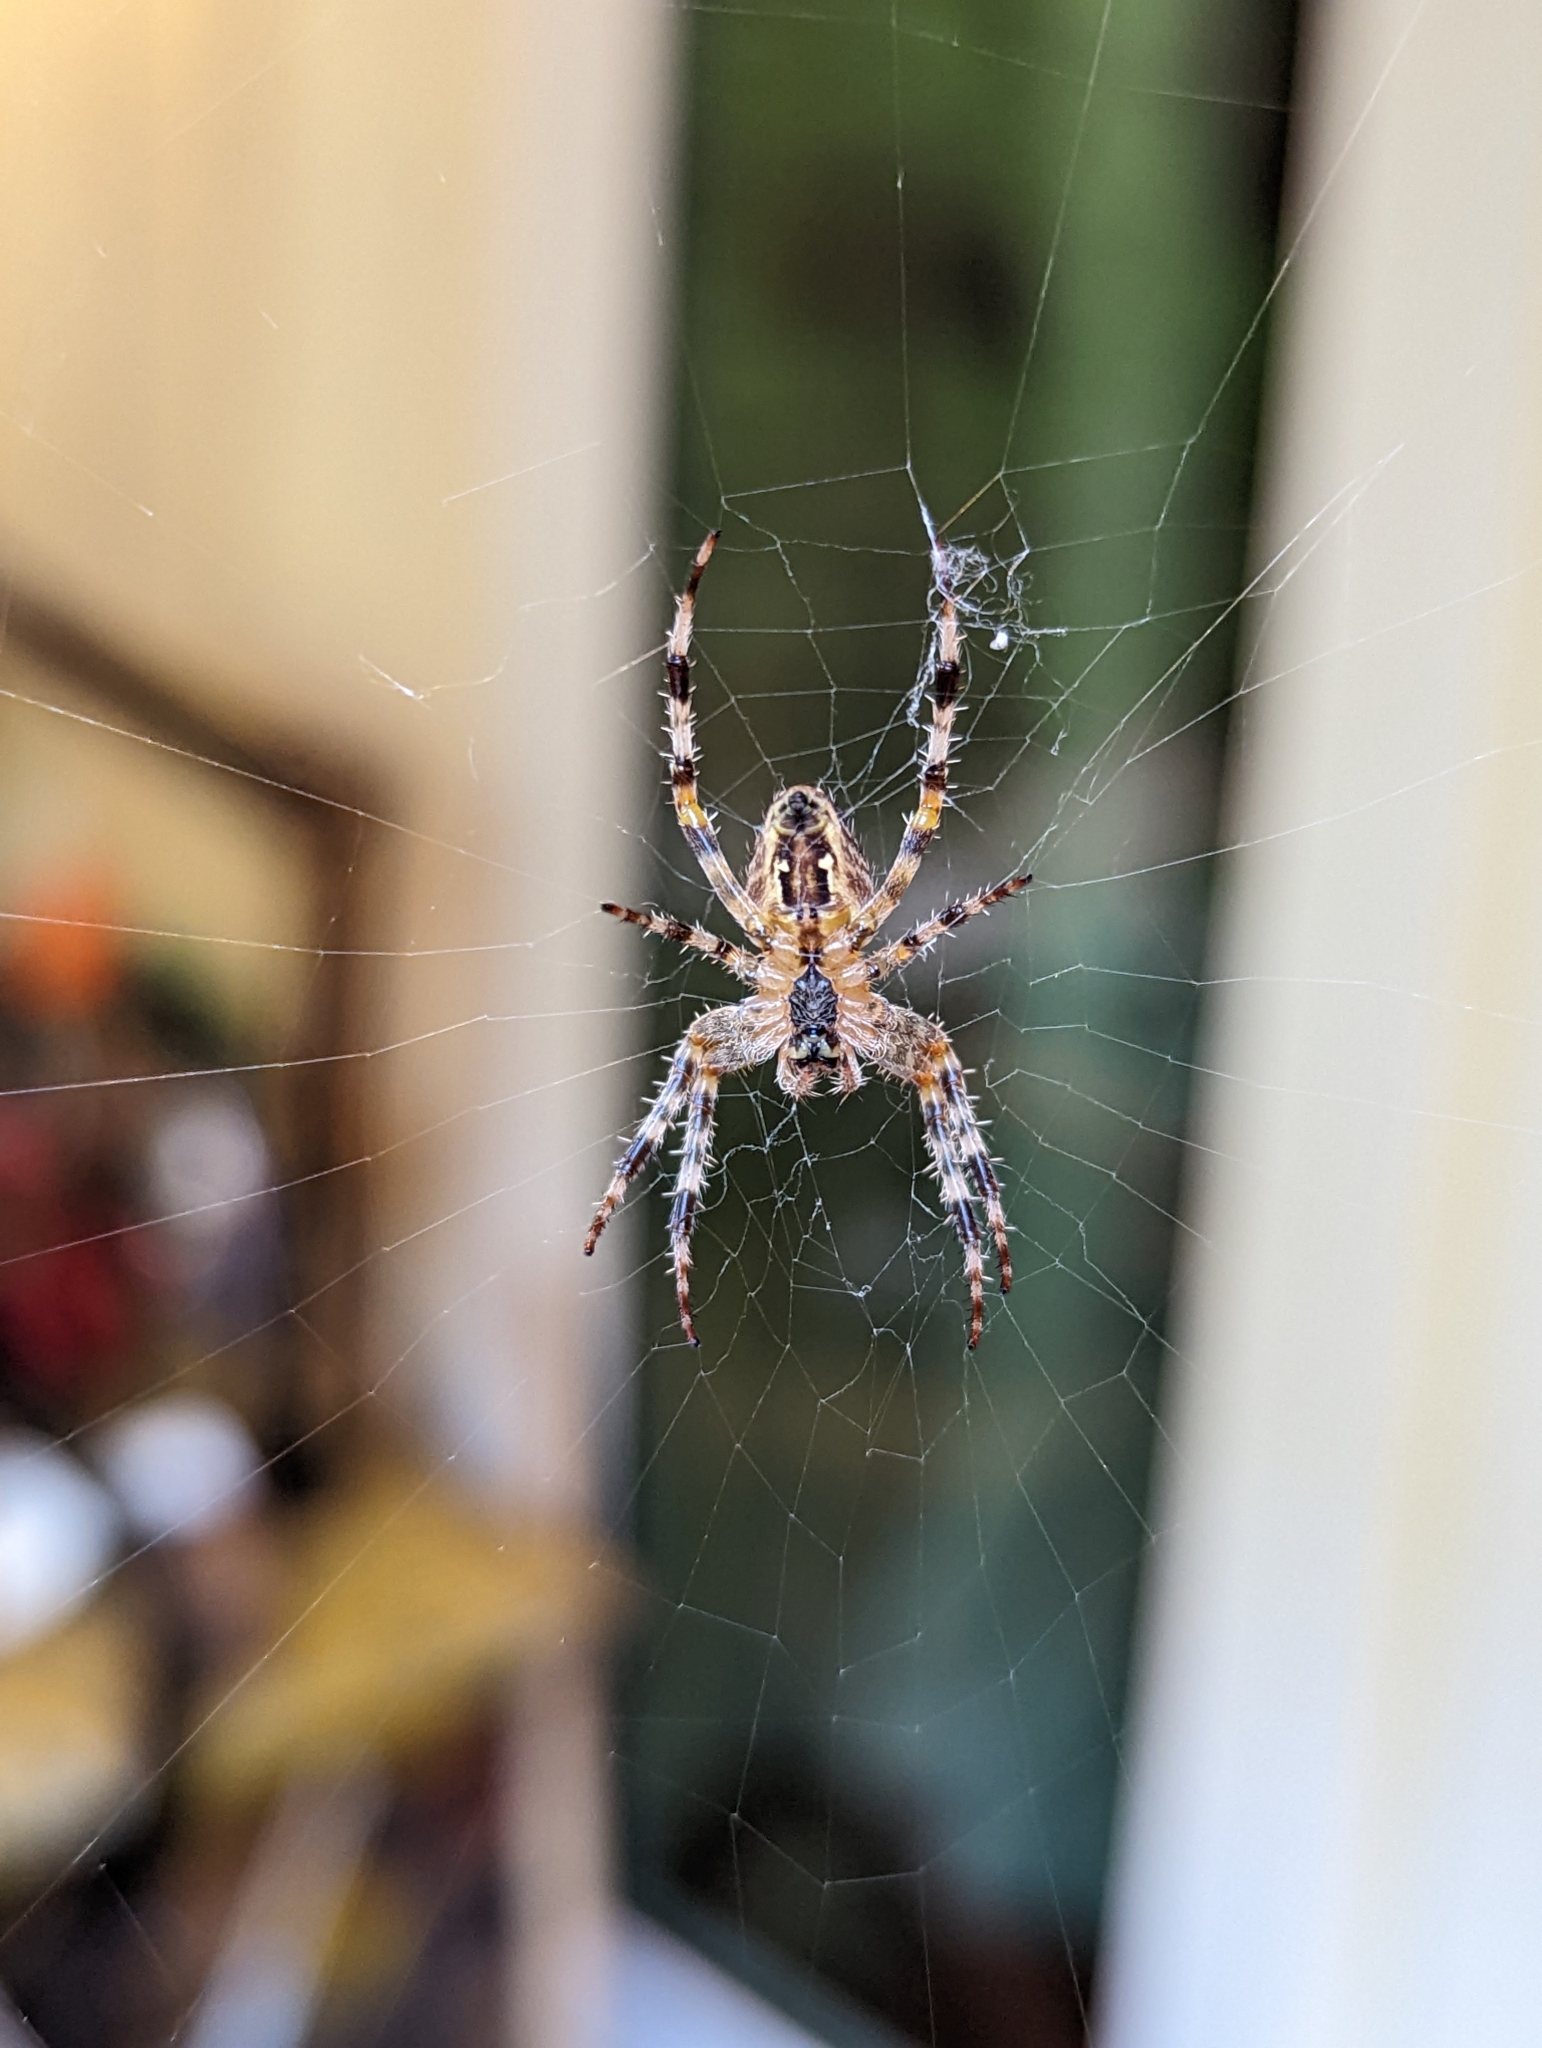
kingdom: Animalia
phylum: Arthropoda
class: Arachnida
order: Araneae
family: Araneidae
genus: Araneus
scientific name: Araneus diadematus
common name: Cross orbweaver
